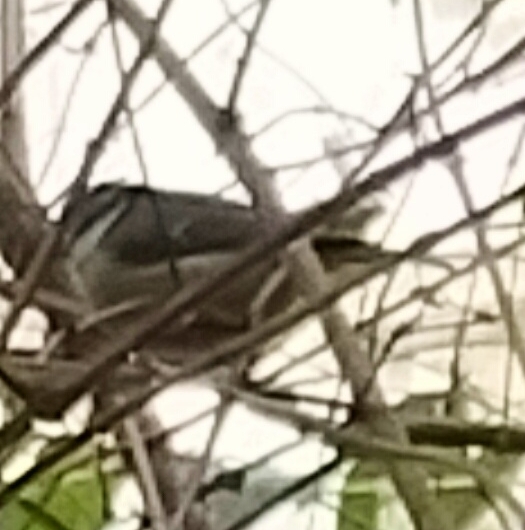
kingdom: Animalia
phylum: Chordata
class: Aves
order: Passeriformes
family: Paridae
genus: Cyanistes
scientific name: Cyanistes caeruleus
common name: Eurasian blue tit
